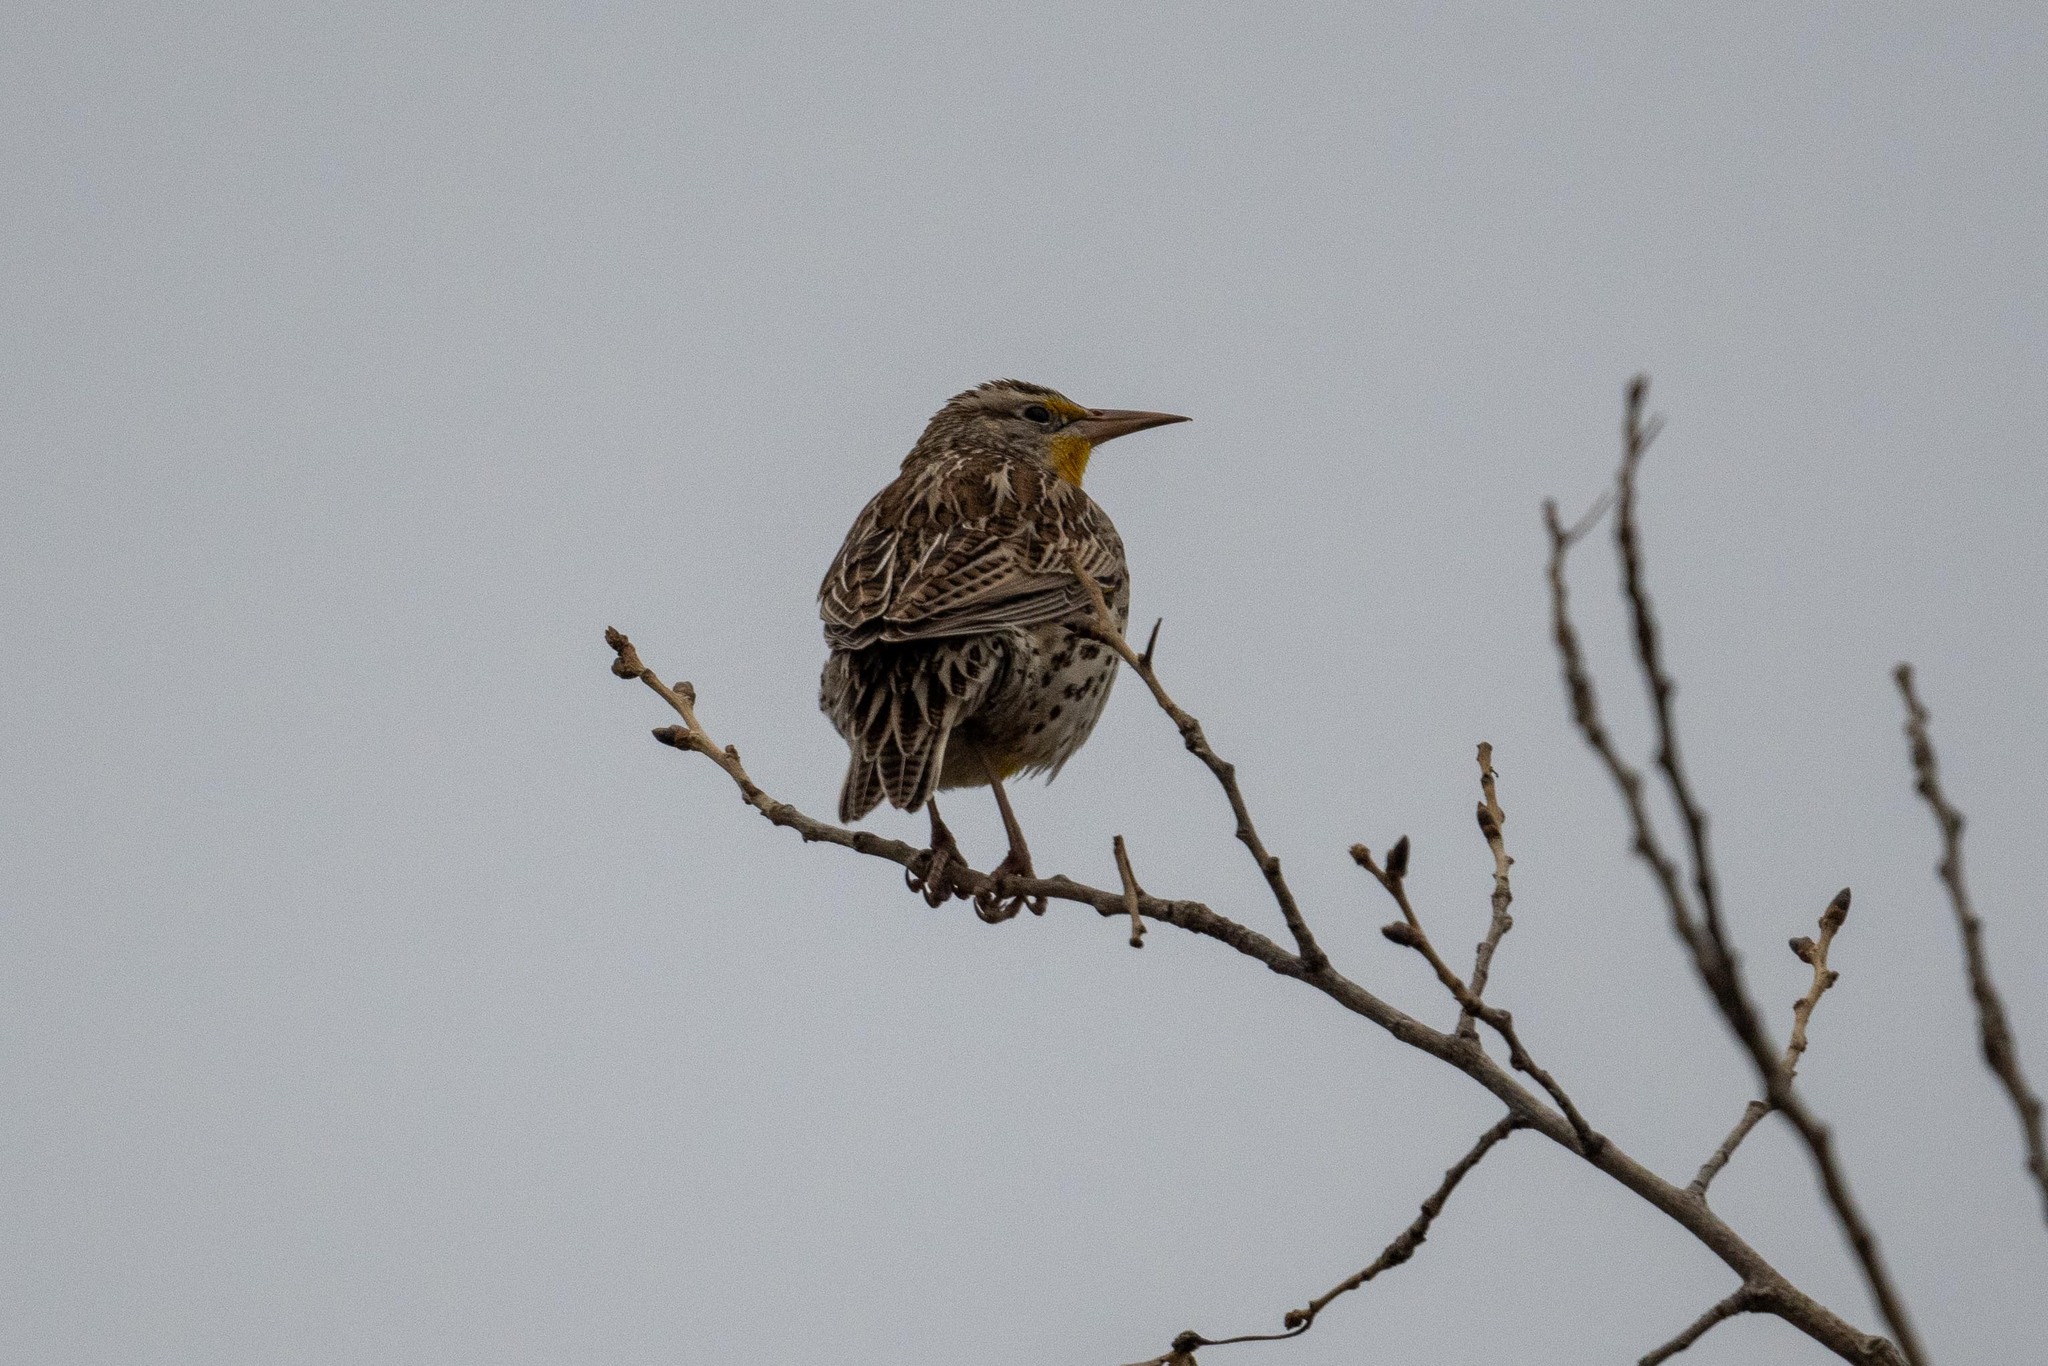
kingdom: Animalia
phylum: Chordata
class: Aves
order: Passeriformes
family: Icteridae
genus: Sturnella
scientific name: Sturnella neglecta
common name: Western meadowlark
